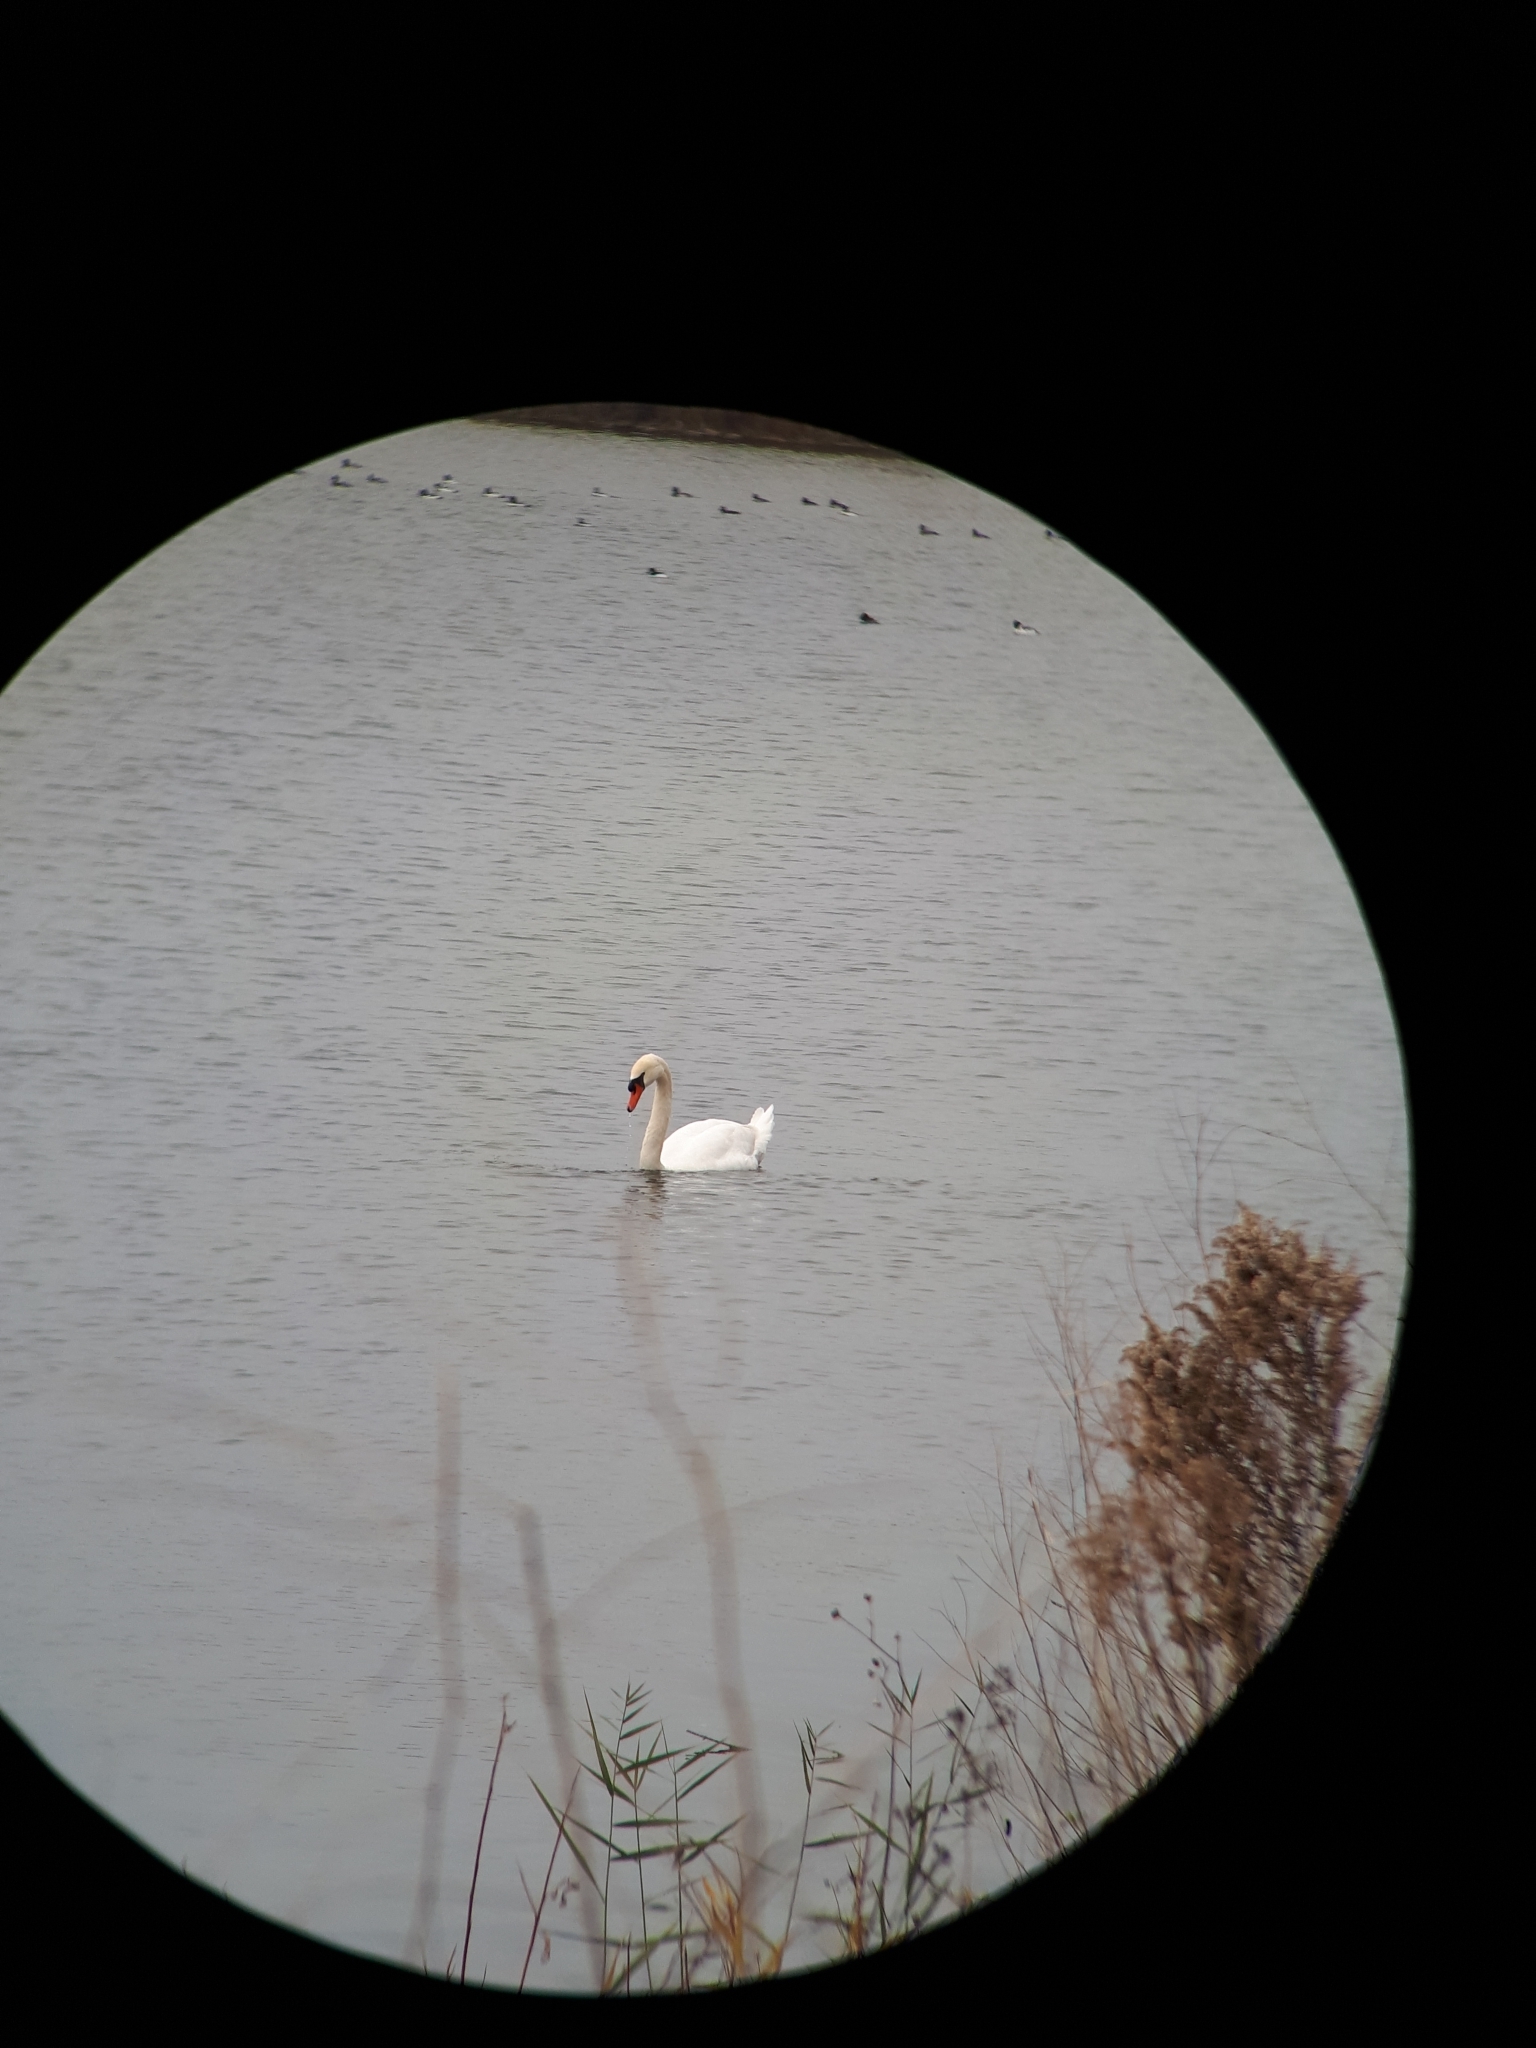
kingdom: Animalia
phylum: Chordata
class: Aves
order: Anseriformes
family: Anatidae
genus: Cygnus
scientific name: Cygnus olor
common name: Mute swan
